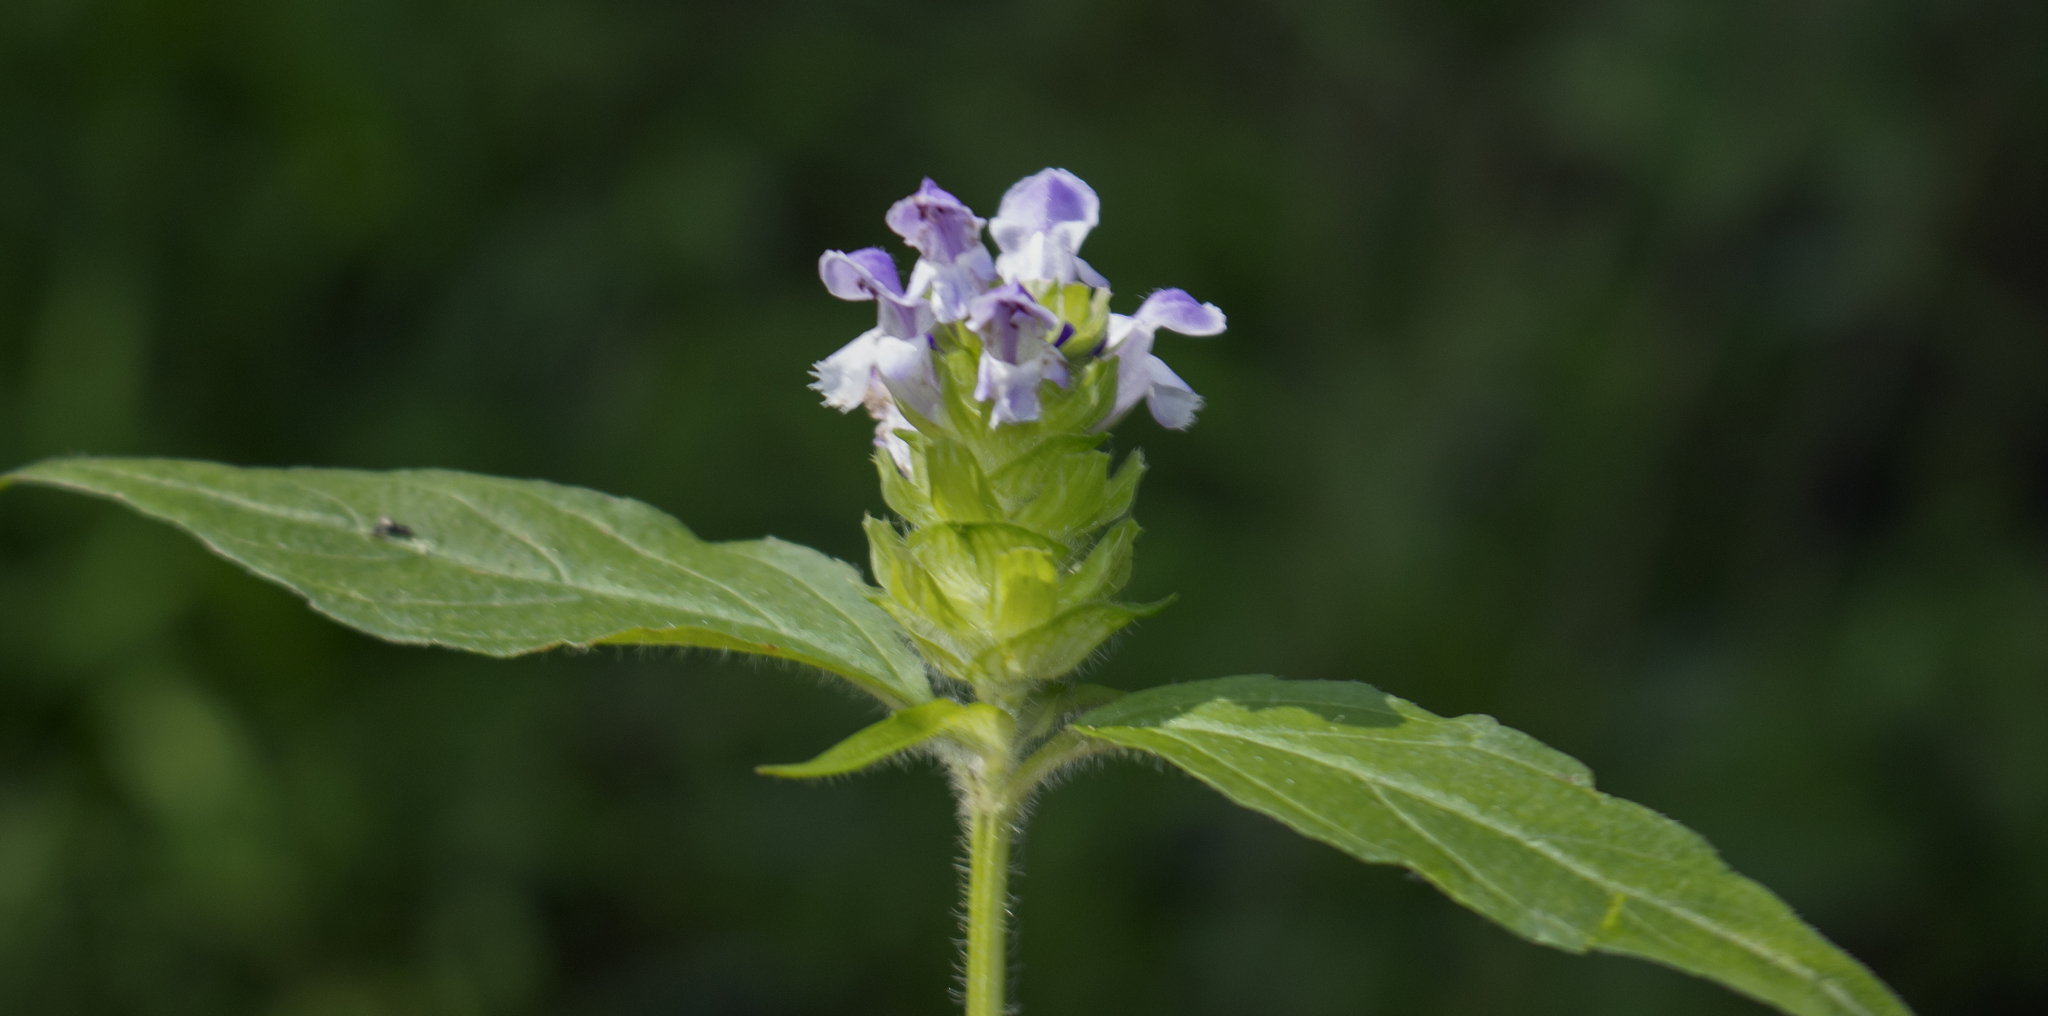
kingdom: Plantae
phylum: Tracheophyta
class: Magnoliopsida
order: Lamiales
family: Lamiaceae
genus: Prunella
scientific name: Prunella vulgaris
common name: Heal-all
